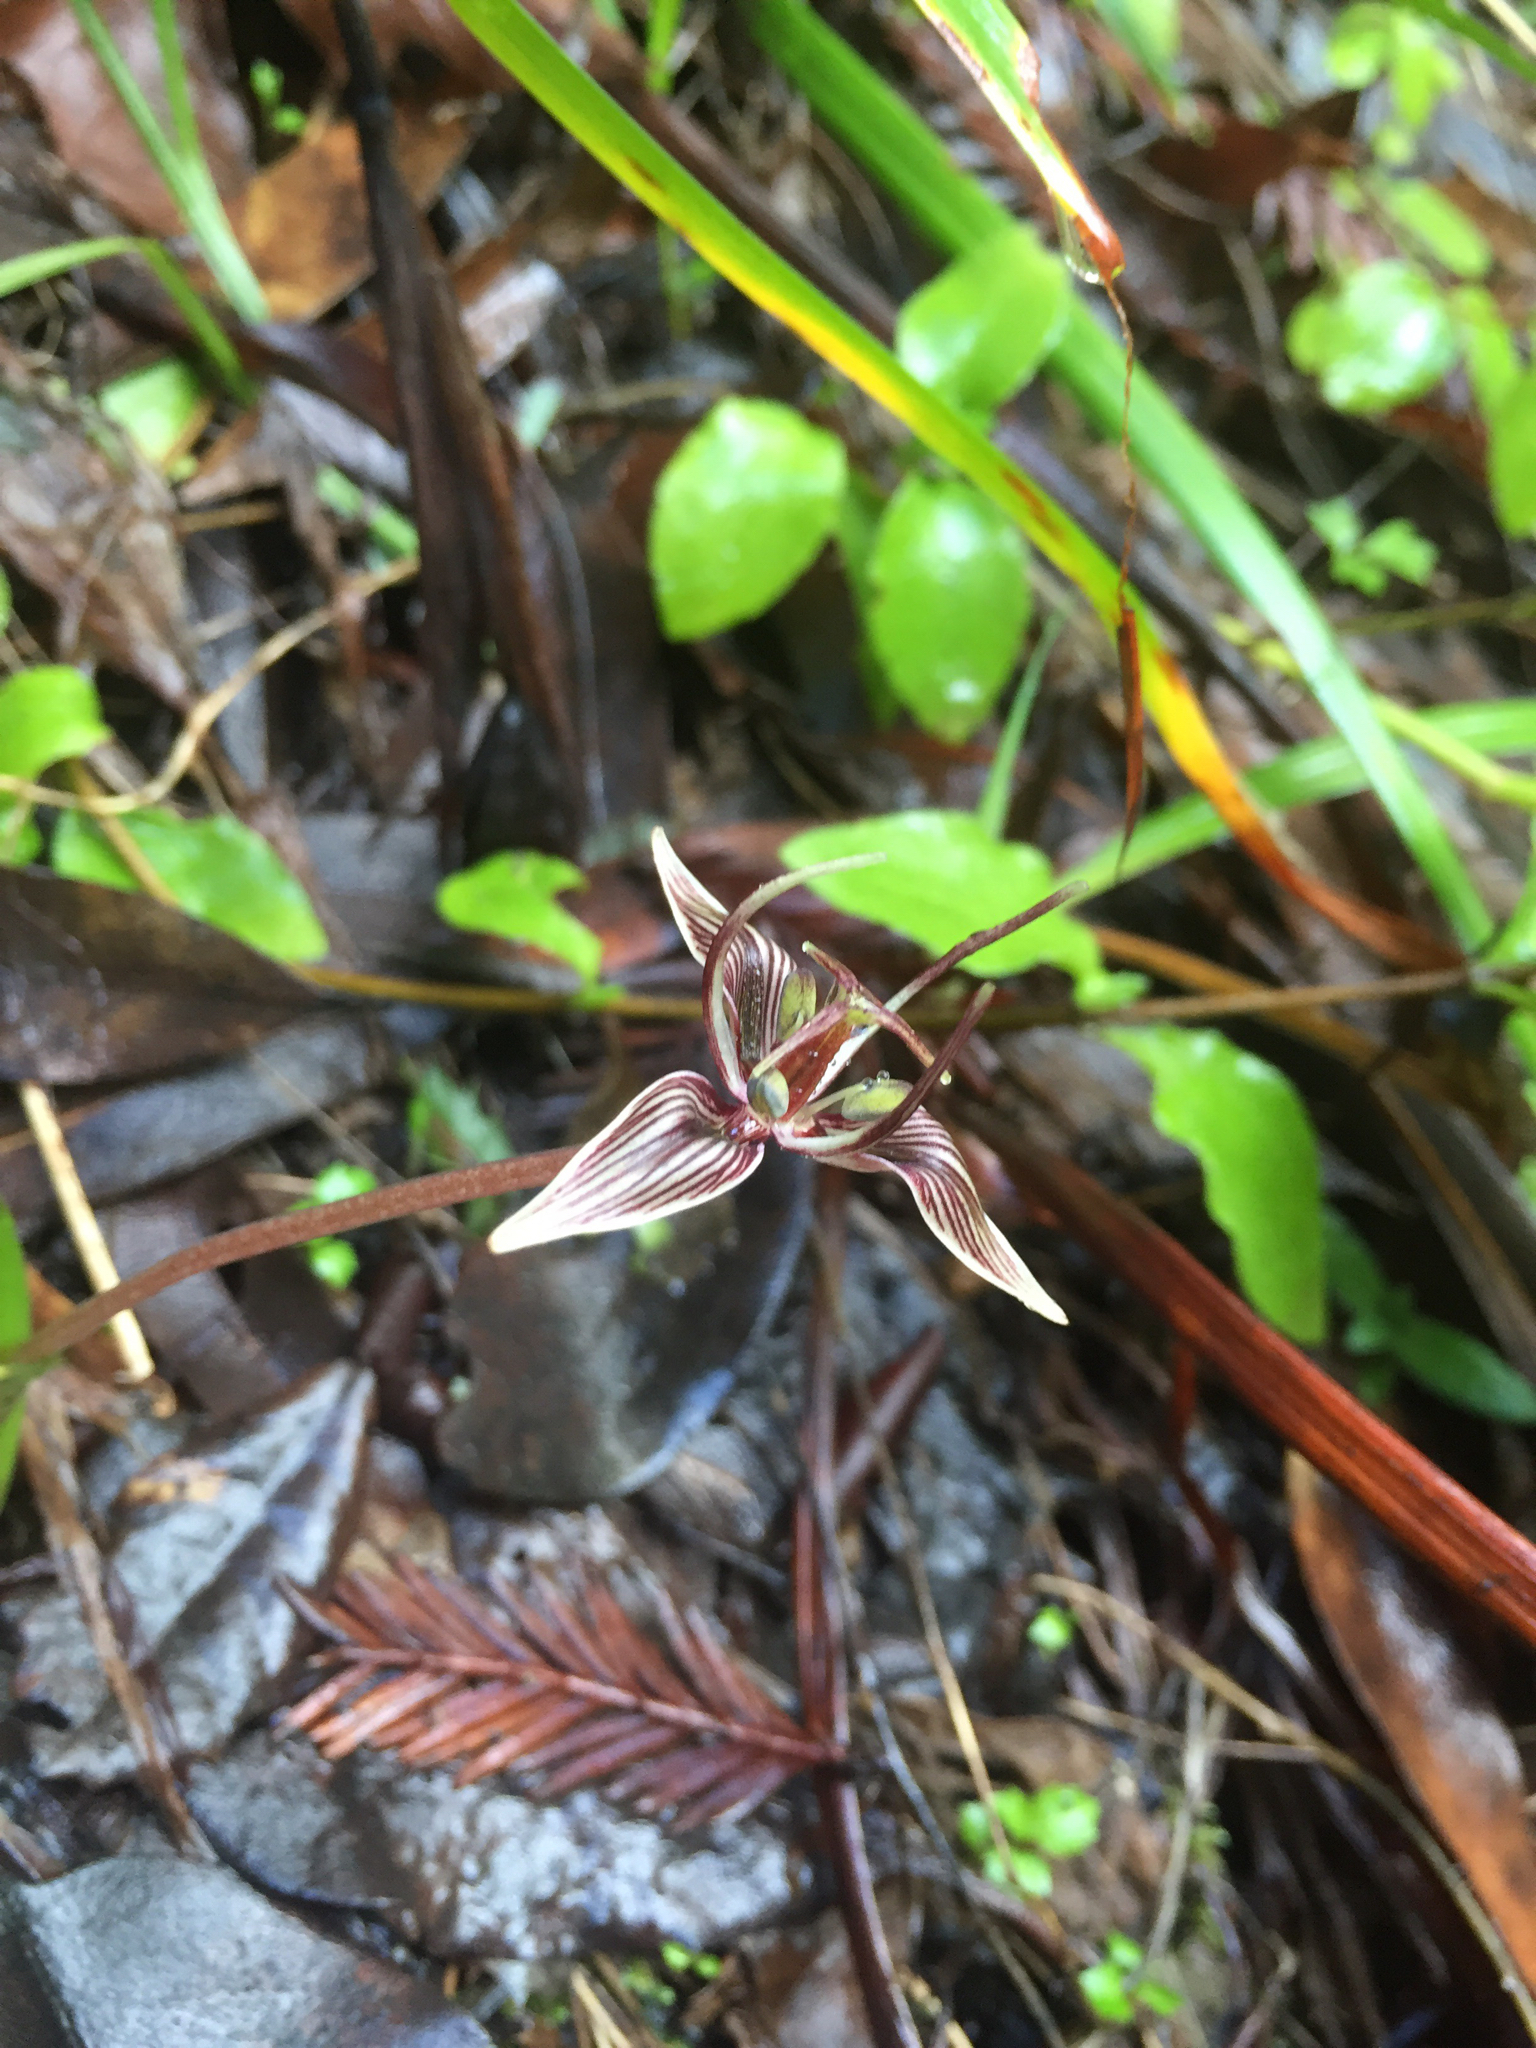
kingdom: Plantae
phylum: Tracheophyta
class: Liliopsida
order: Liliales
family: Liliaceae
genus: Scoliopus
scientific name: Scoliopus bigelovii
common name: Foetid adder's-tongue
